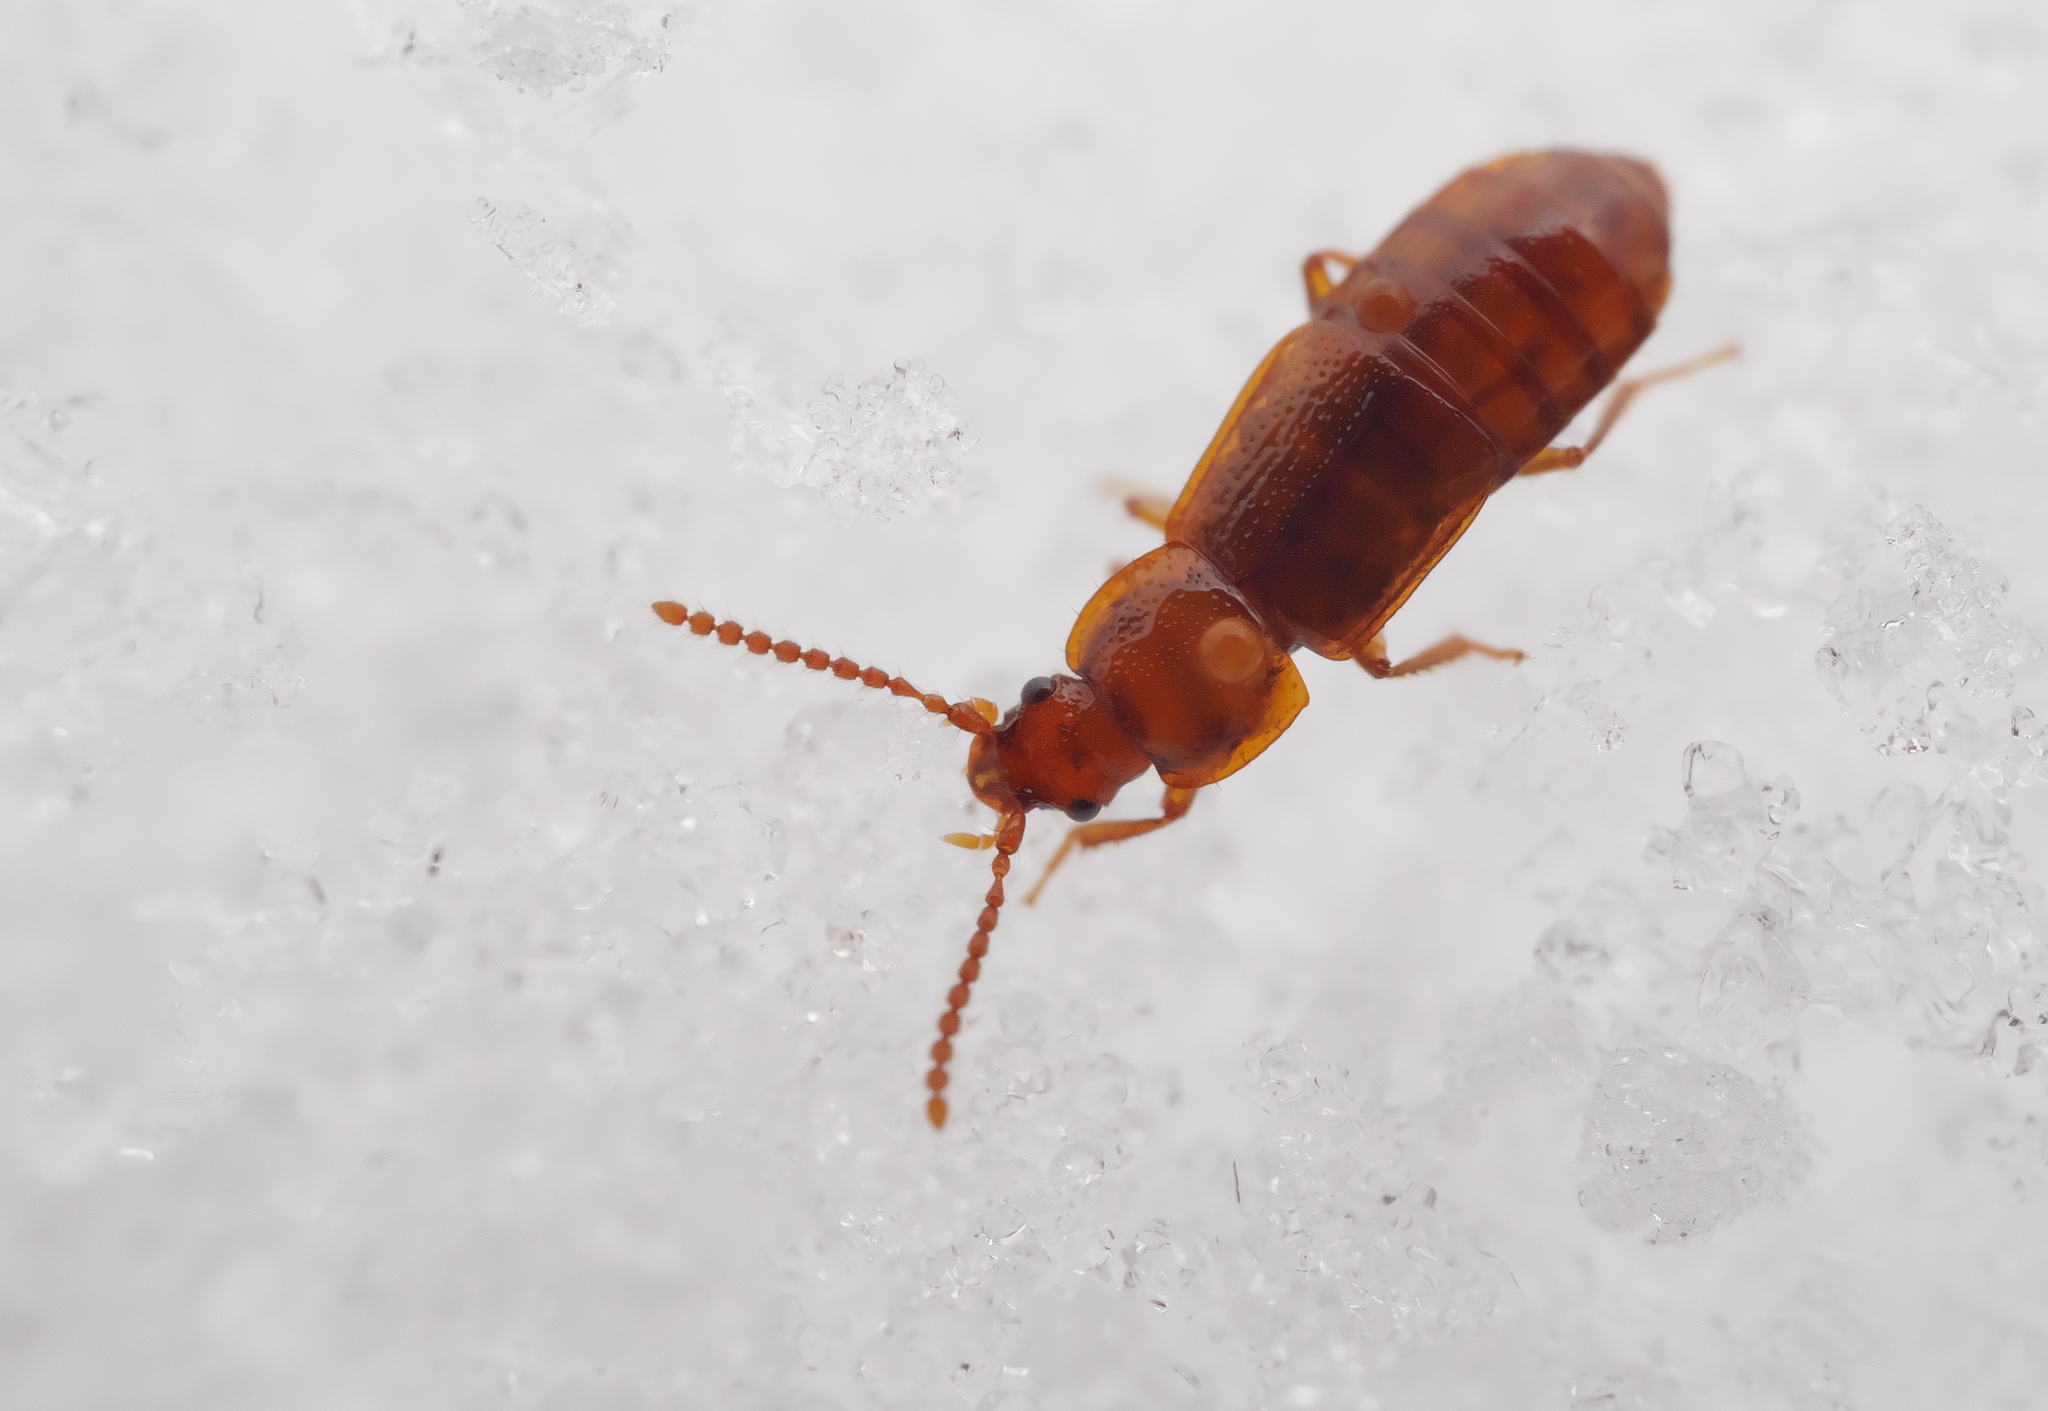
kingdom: Animalia
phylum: Arthropoda
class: Insecta
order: Coleoptera
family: Staphylinidae
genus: Acidota
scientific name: Acidota cruentata
